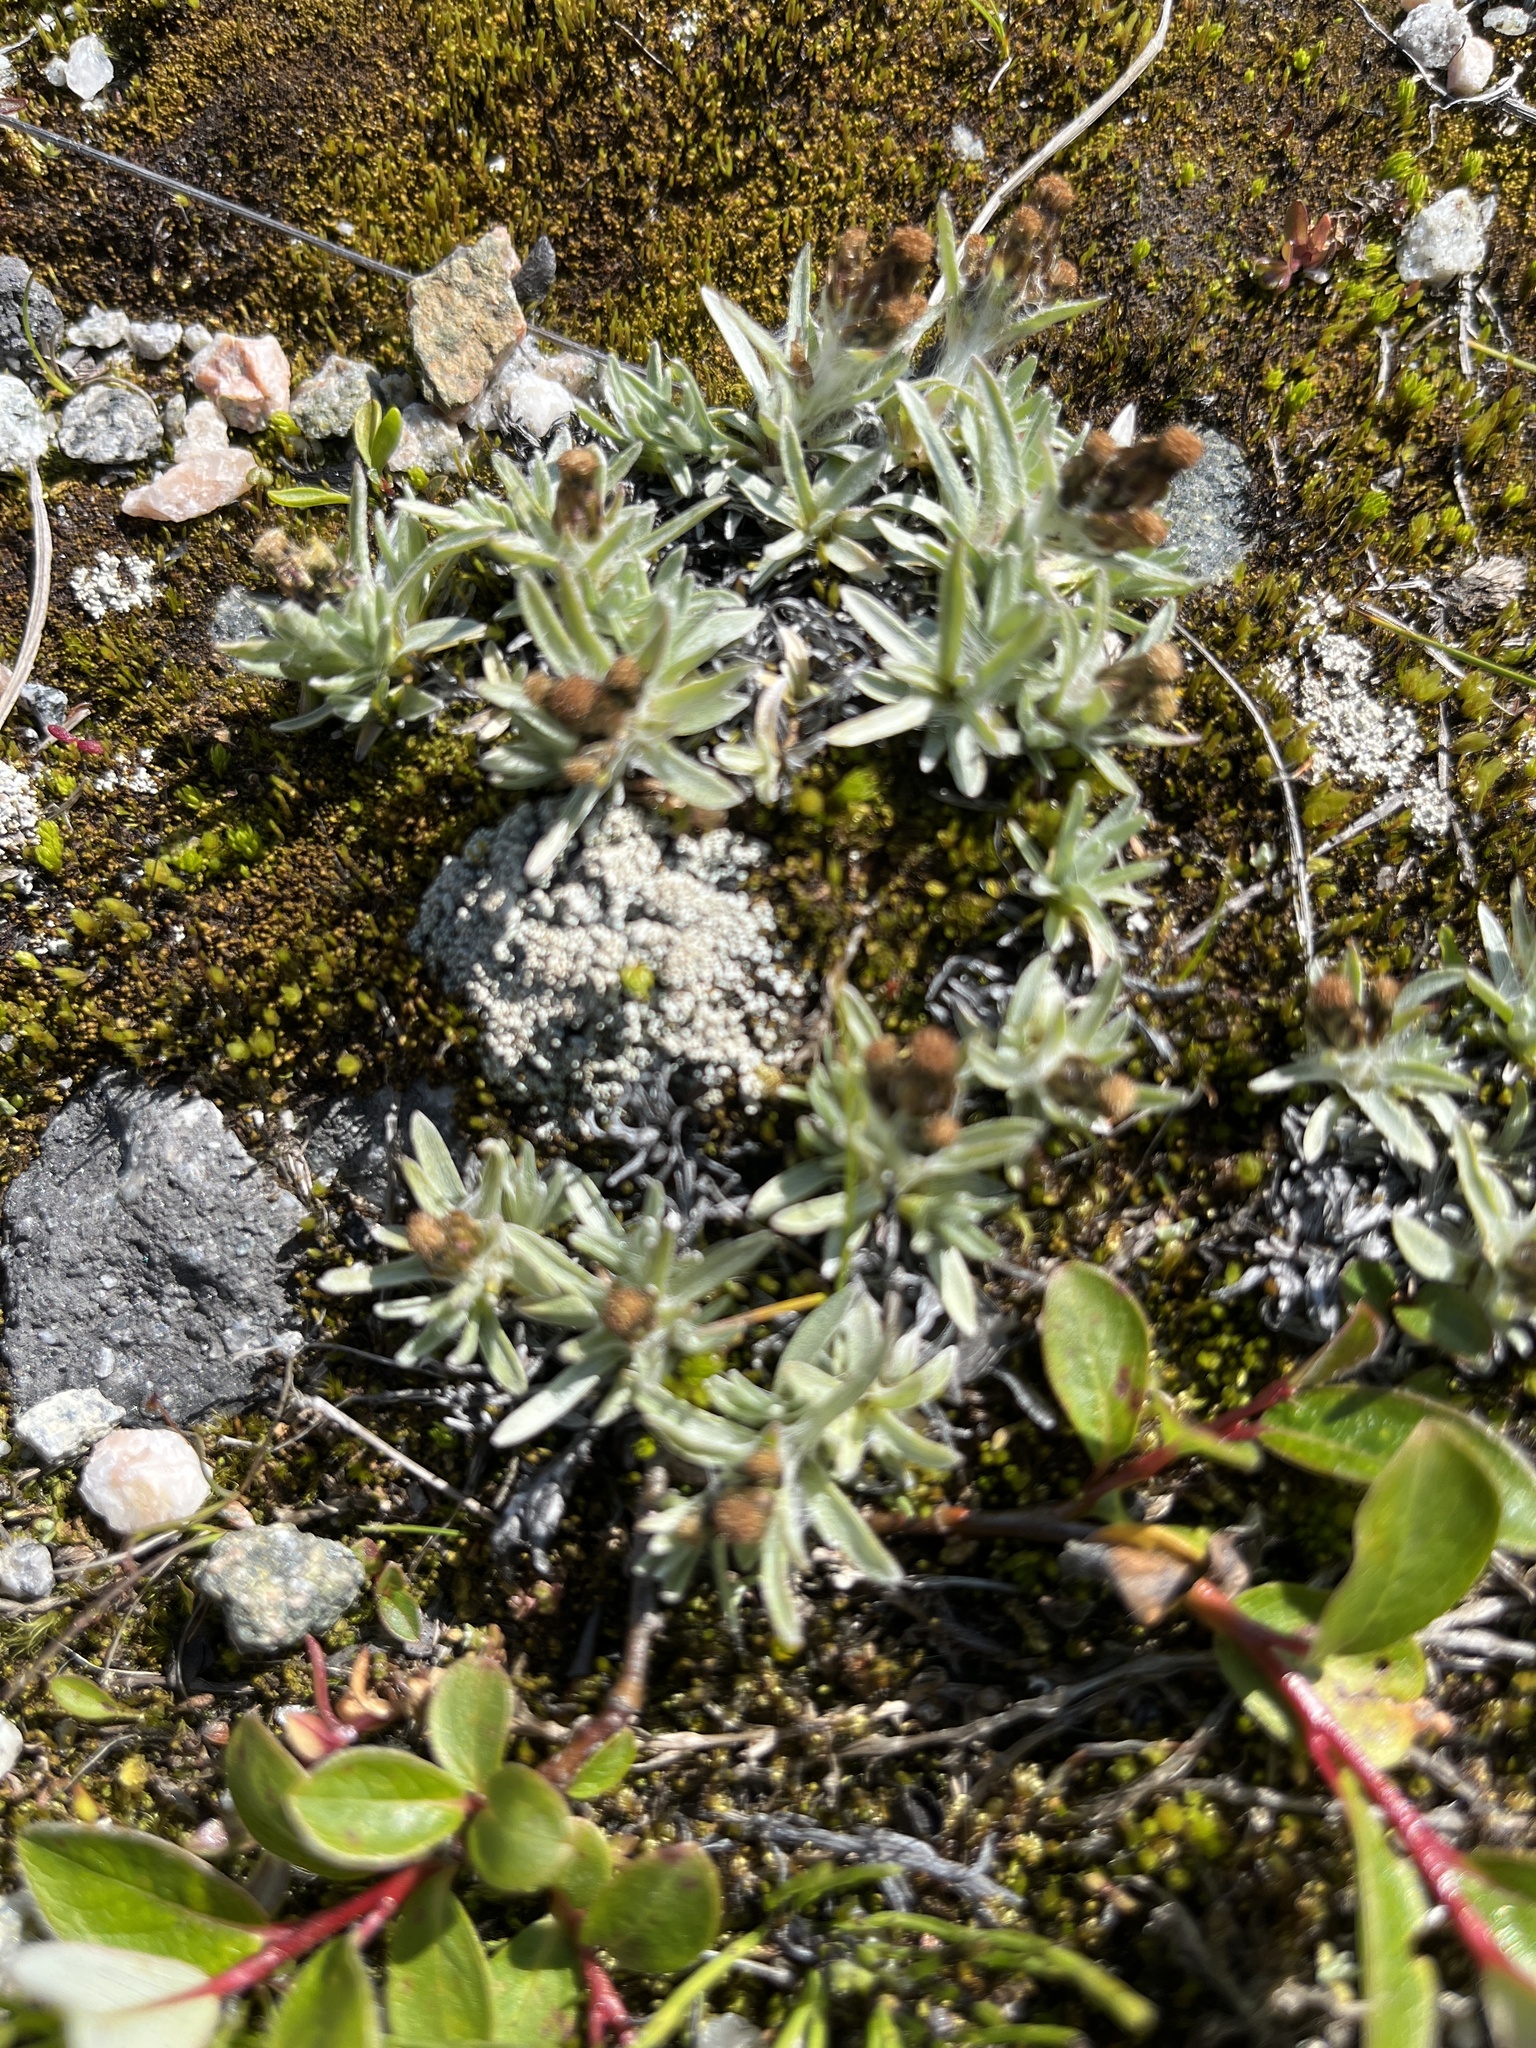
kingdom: Plantae
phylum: Tracheophyta
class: Magnoliopsida
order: Asterales
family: Asteraceae
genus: Omalotheca
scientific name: Omalotheca supina
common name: Alpine arctic-cudweed
